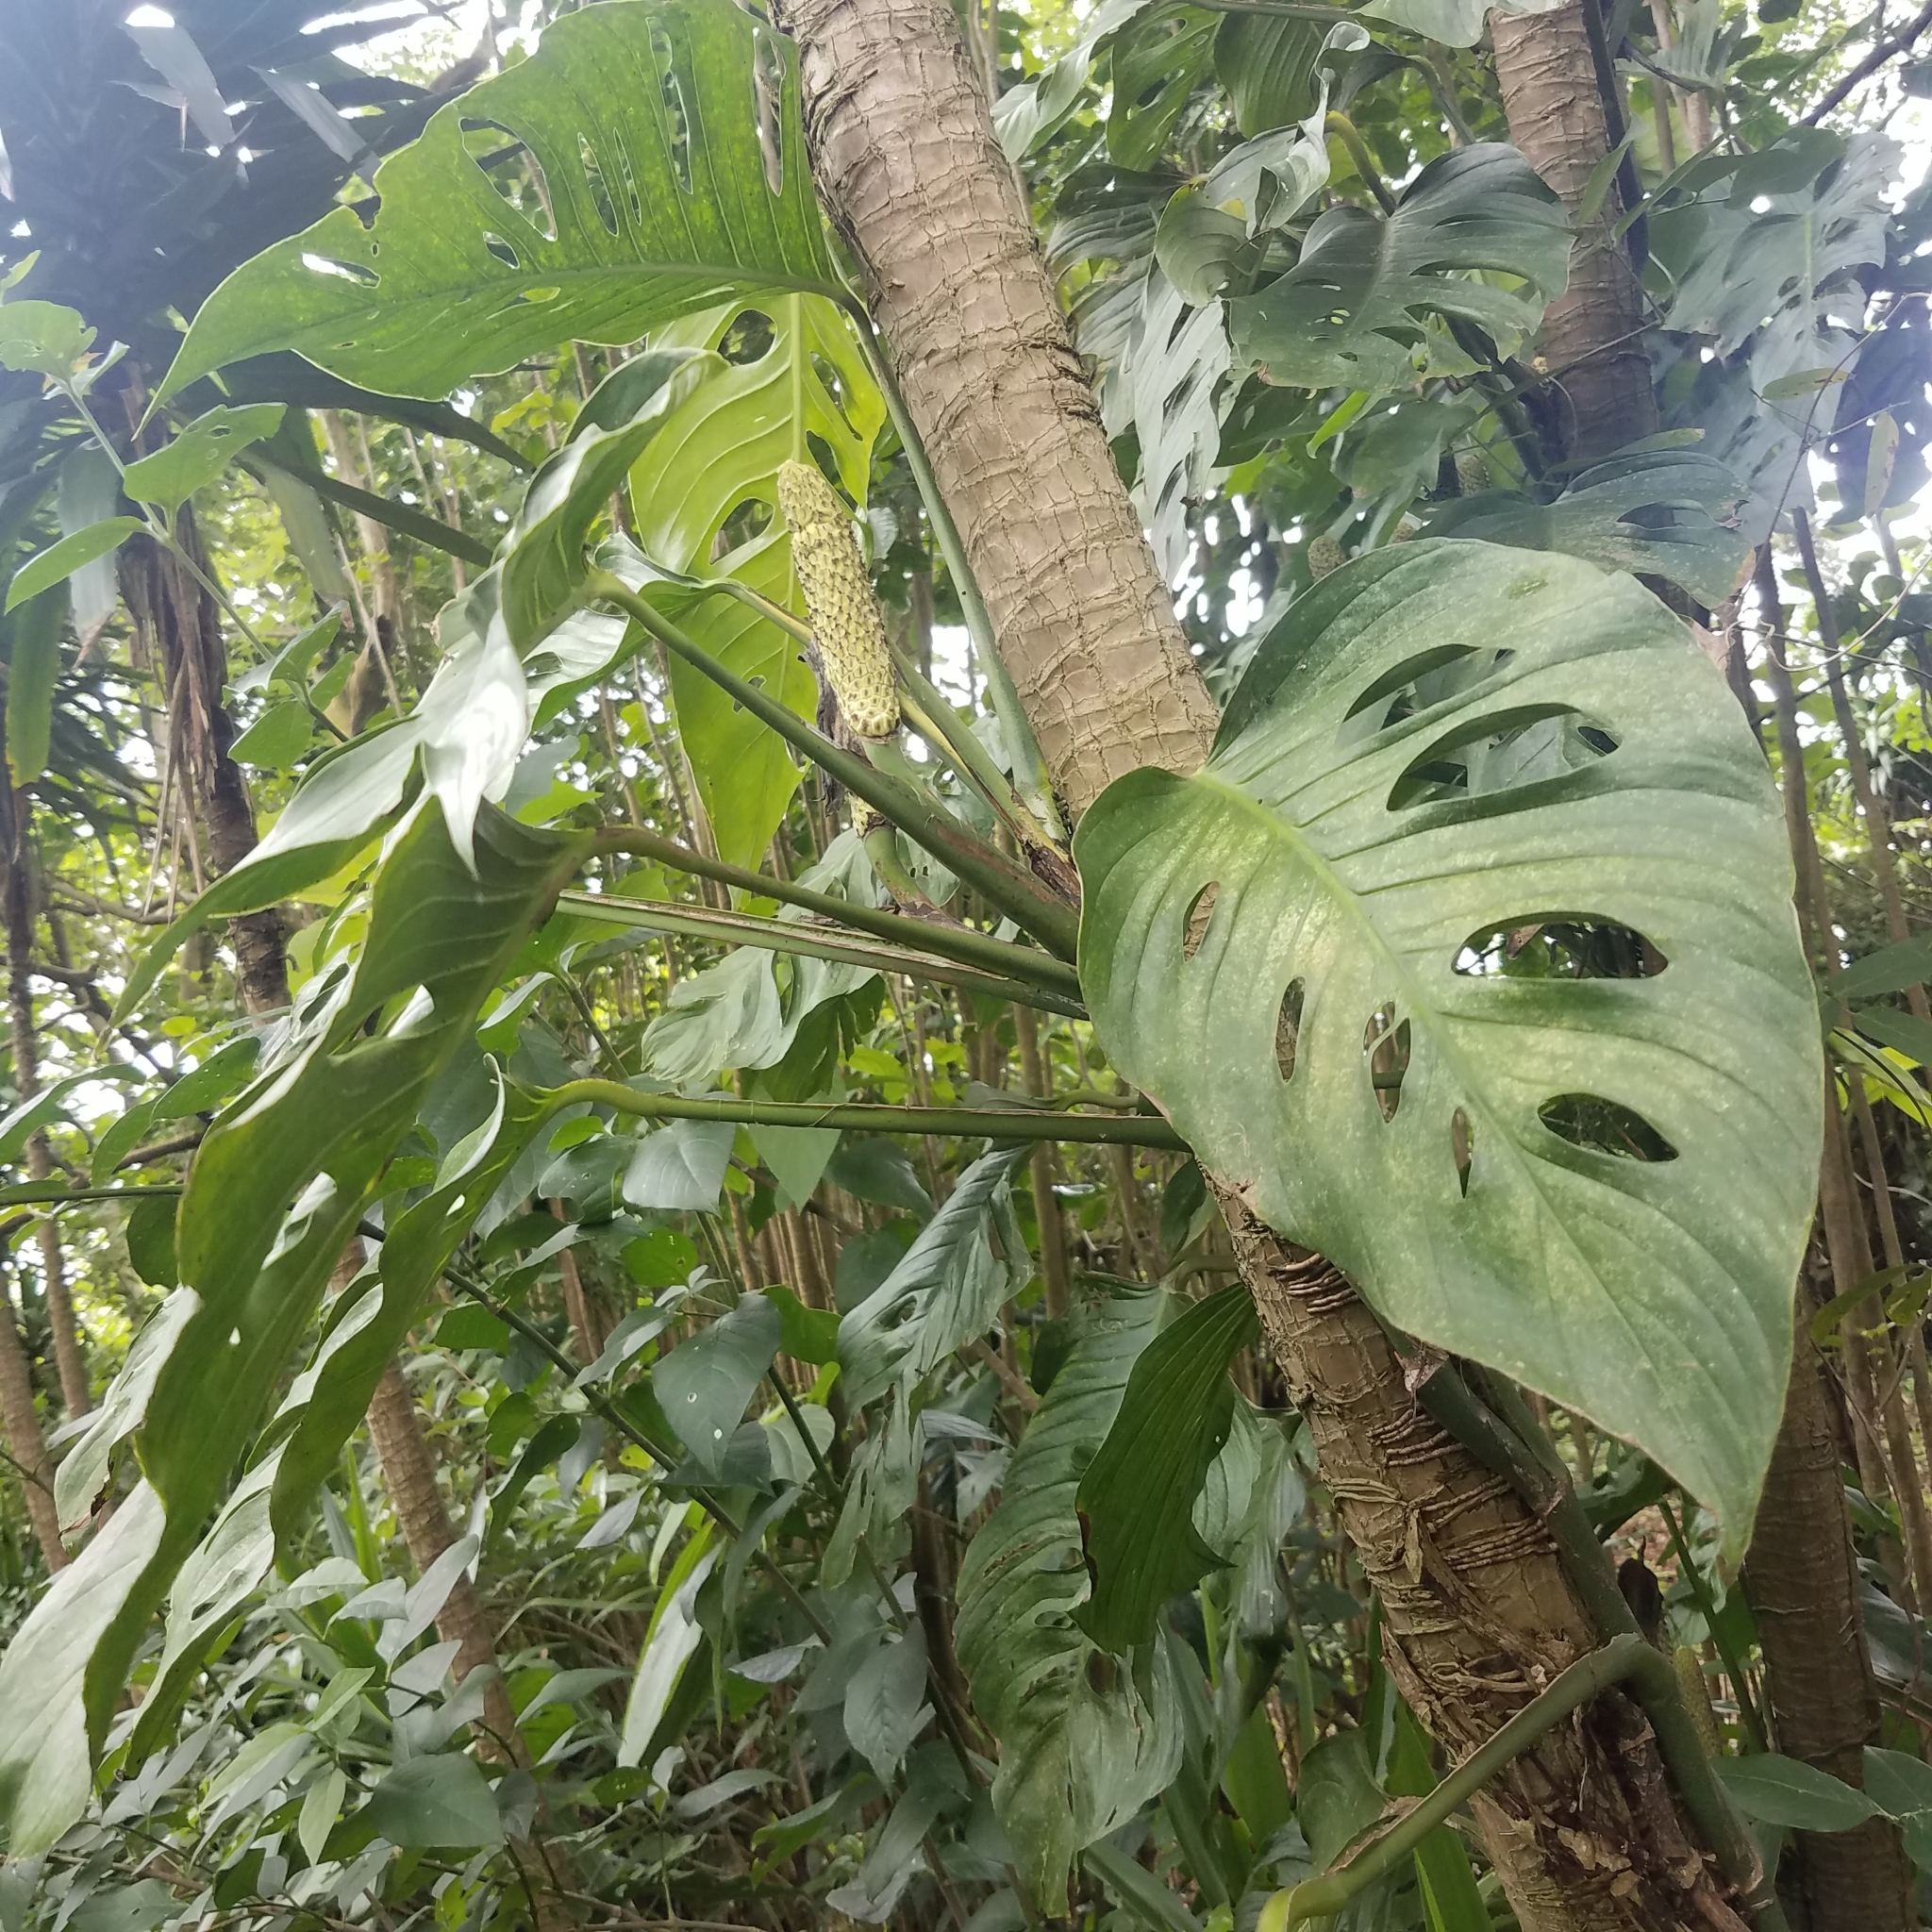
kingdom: Plantae
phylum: Tracheophyta
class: Liliopsida
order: Alismatales
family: Araceae
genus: Monstera
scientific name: Monstera adansonii
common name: Tarovine
